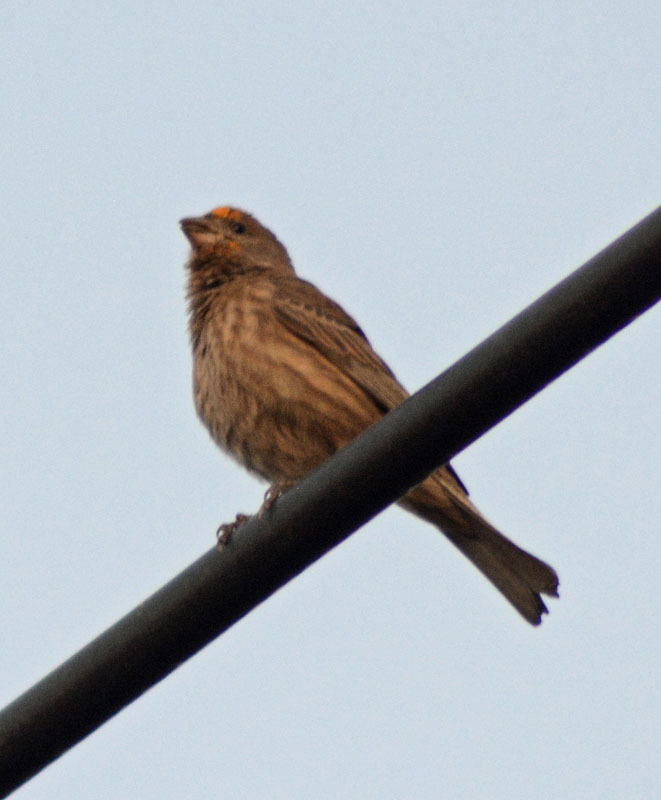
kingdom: Animalia
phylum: Chordata
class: Aves
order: Passeriformes
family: Fringillidae
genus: Haemorhous
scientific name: Haemorhous mexicanus
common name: House finch
